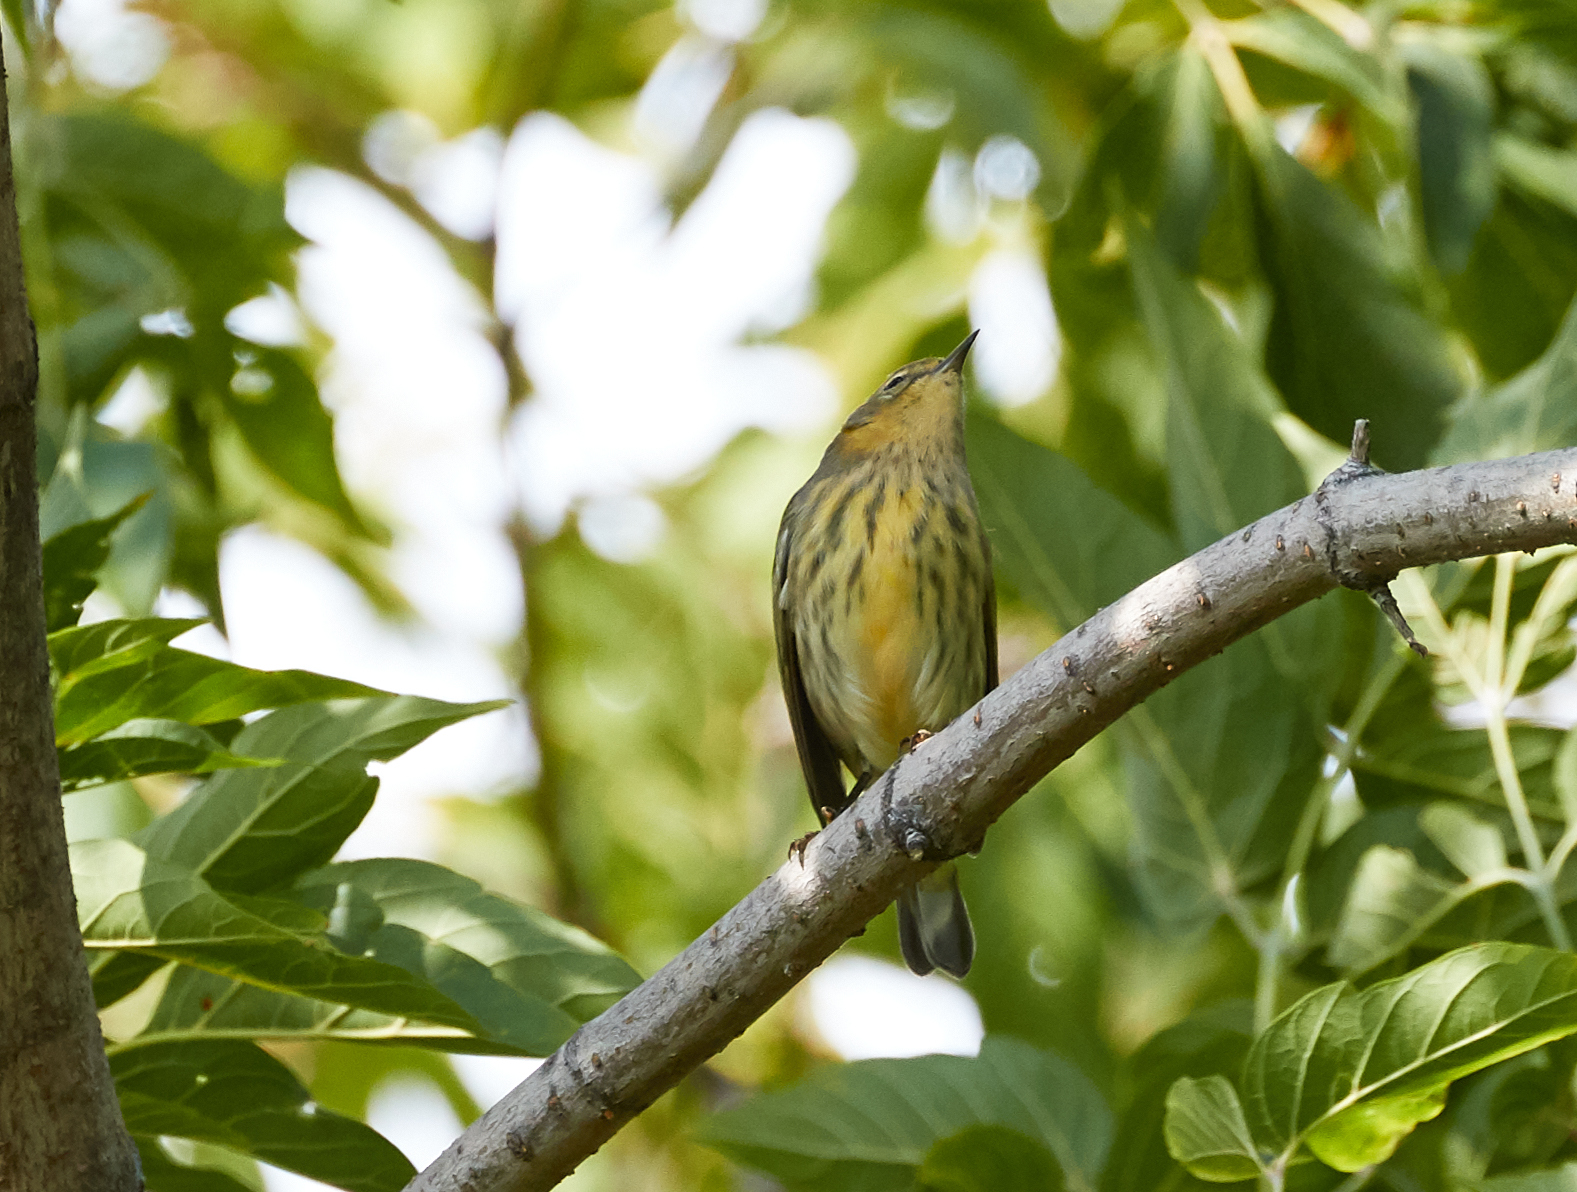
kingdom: Animalia
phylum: Chordata
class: Aves
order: Passeriformes
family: Parulidae
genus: Setophaga
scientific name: Setophaga tigrina
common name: Cape may warbler
